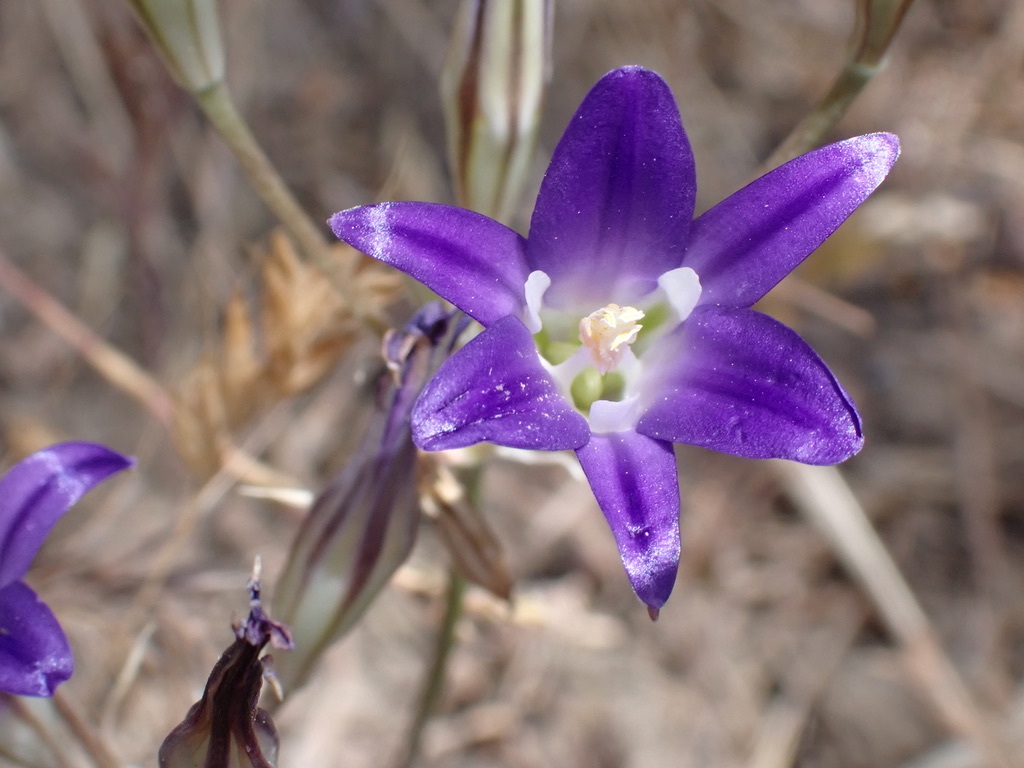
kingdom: Plantae
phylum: Tracheophyta
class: Liliopsida
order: Asparagales
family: Asparagaceae
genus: Brodiaea
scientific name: Brodiaea elegans
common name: Elegant cluster-lily
